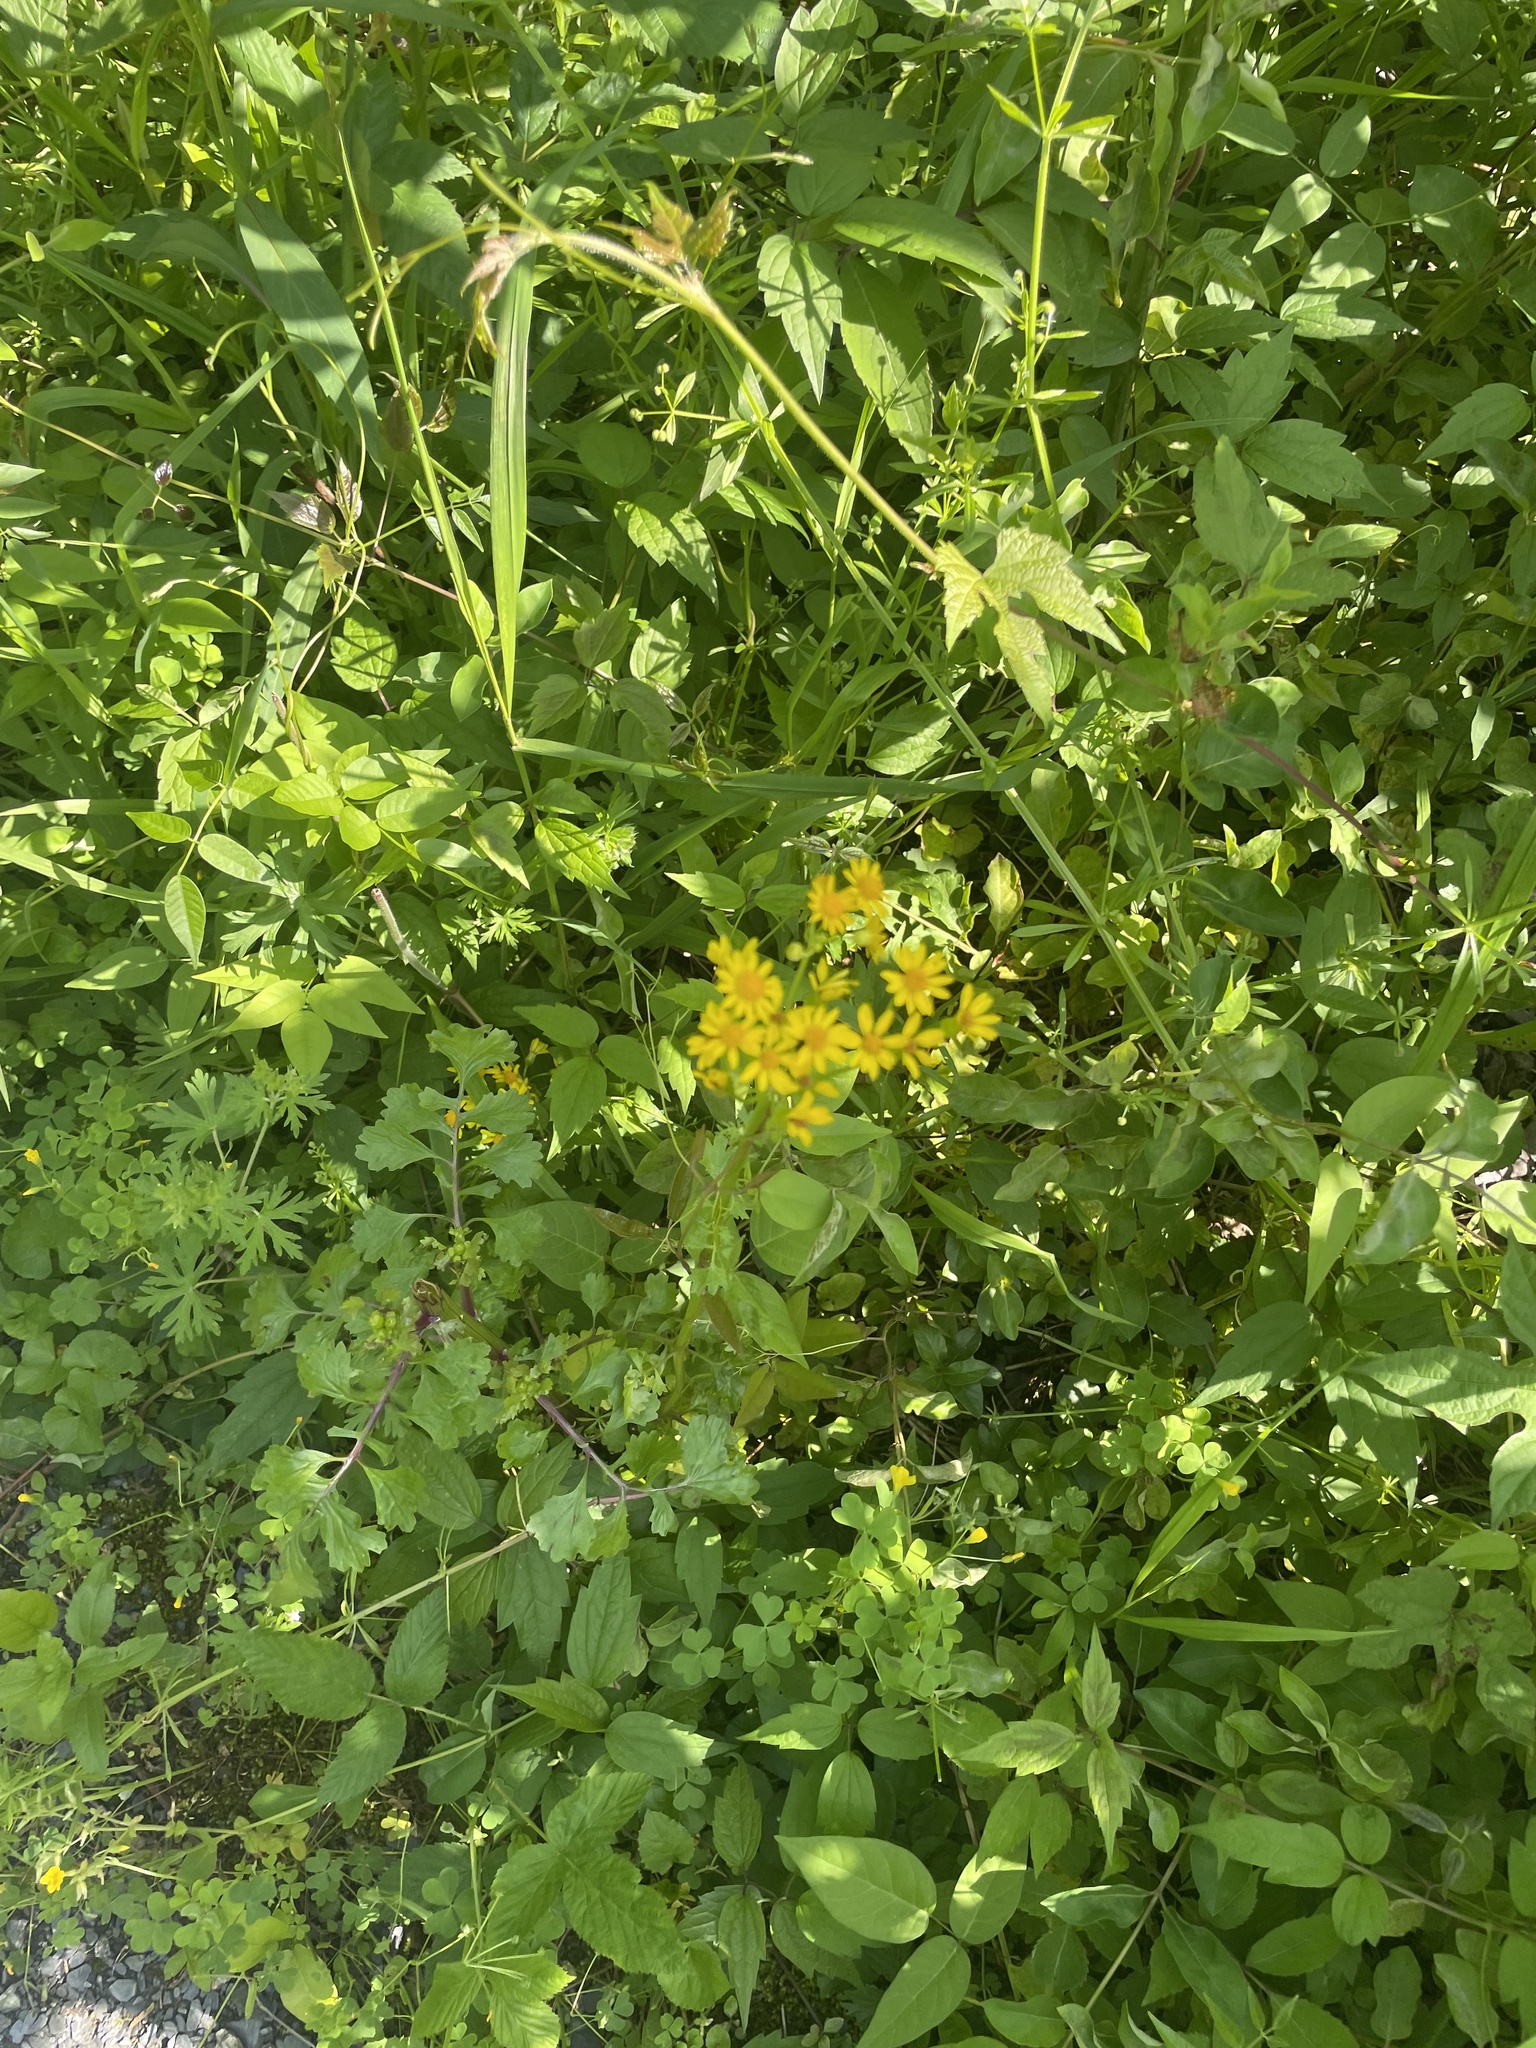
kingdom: Plantae
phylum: Tracheophyta
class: Magnoliopsida
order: Asterales
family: Asteraceae
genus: Packera
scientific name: Packera glabella
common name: Butterweed
